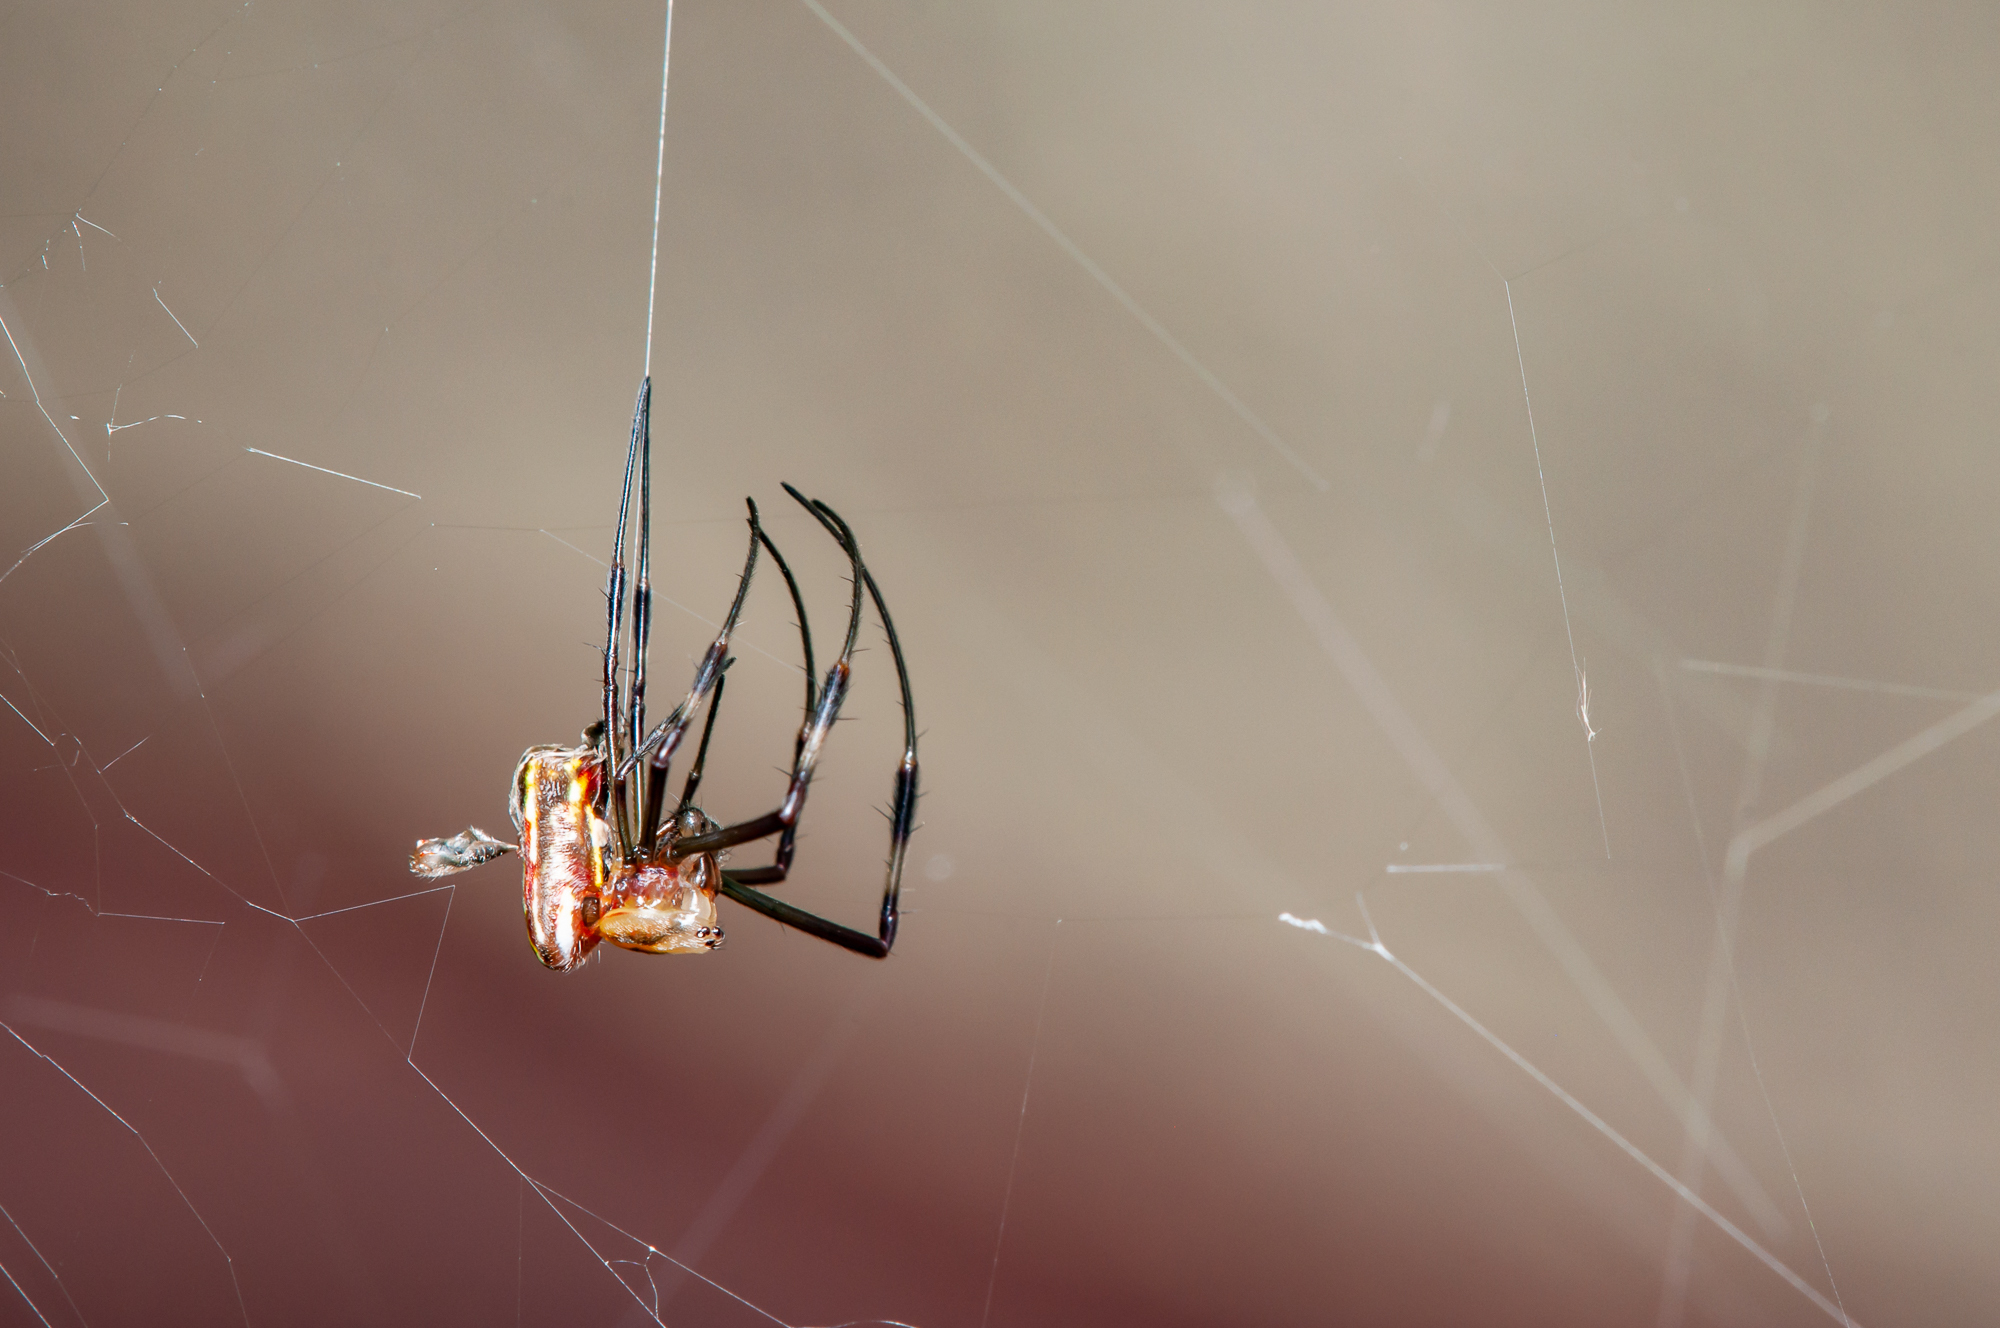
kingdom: Animalia
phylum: Arthropoda
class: Arachnida
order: Araneae
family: Araneidae
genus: Trichonephila
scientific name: Trichonephila clavipes
